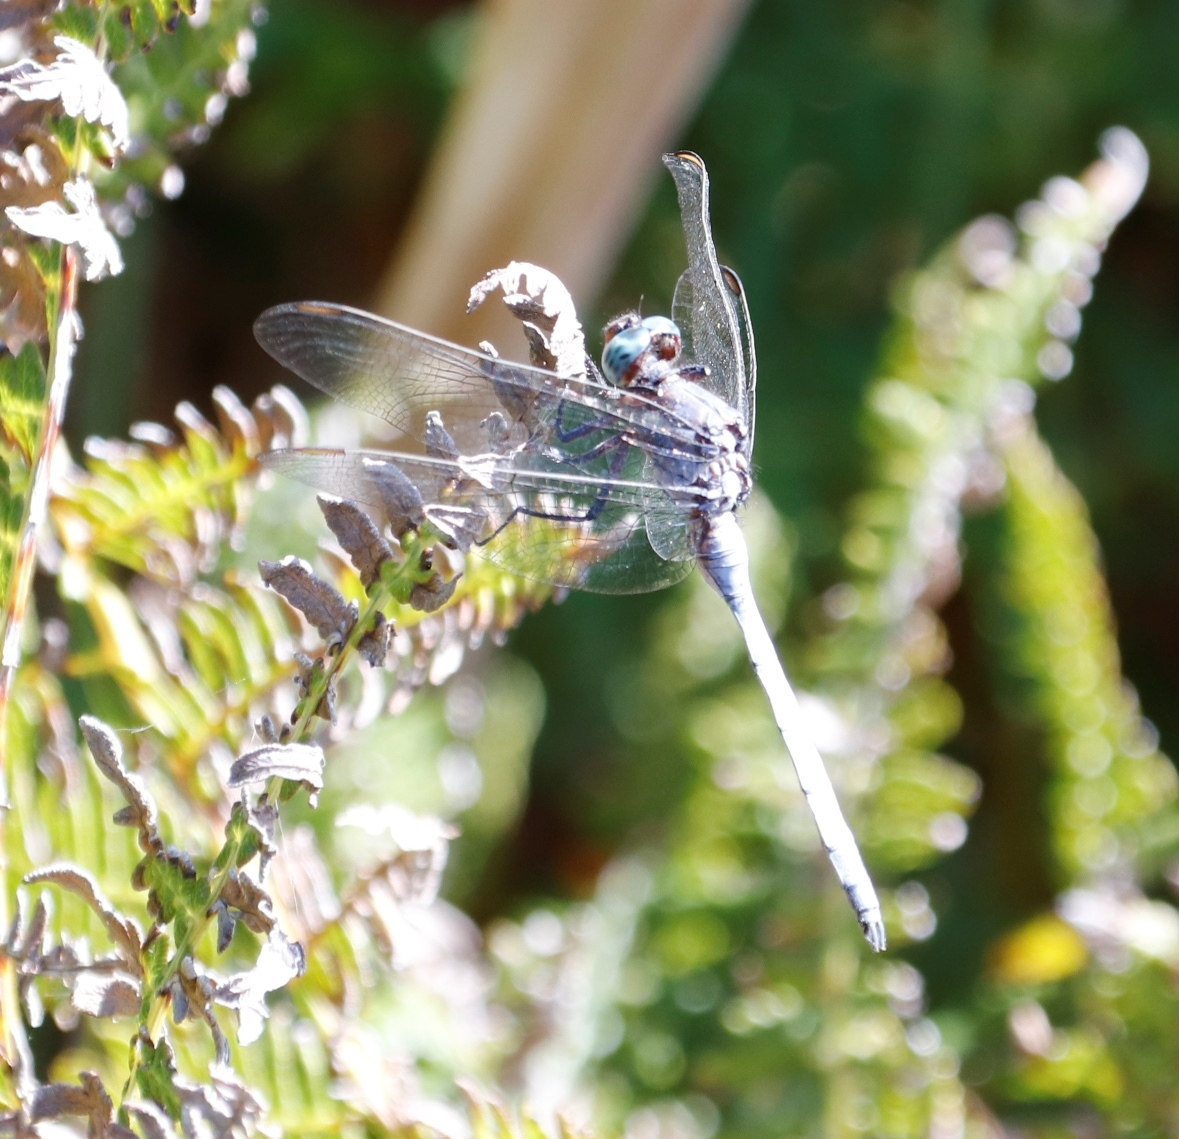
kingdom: Animalia
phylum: Arthropoda
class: Insecta
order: Odonata
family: Libellulidae
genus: Orthetrum
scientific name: Orthetrum julia
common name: Julia skimmer
